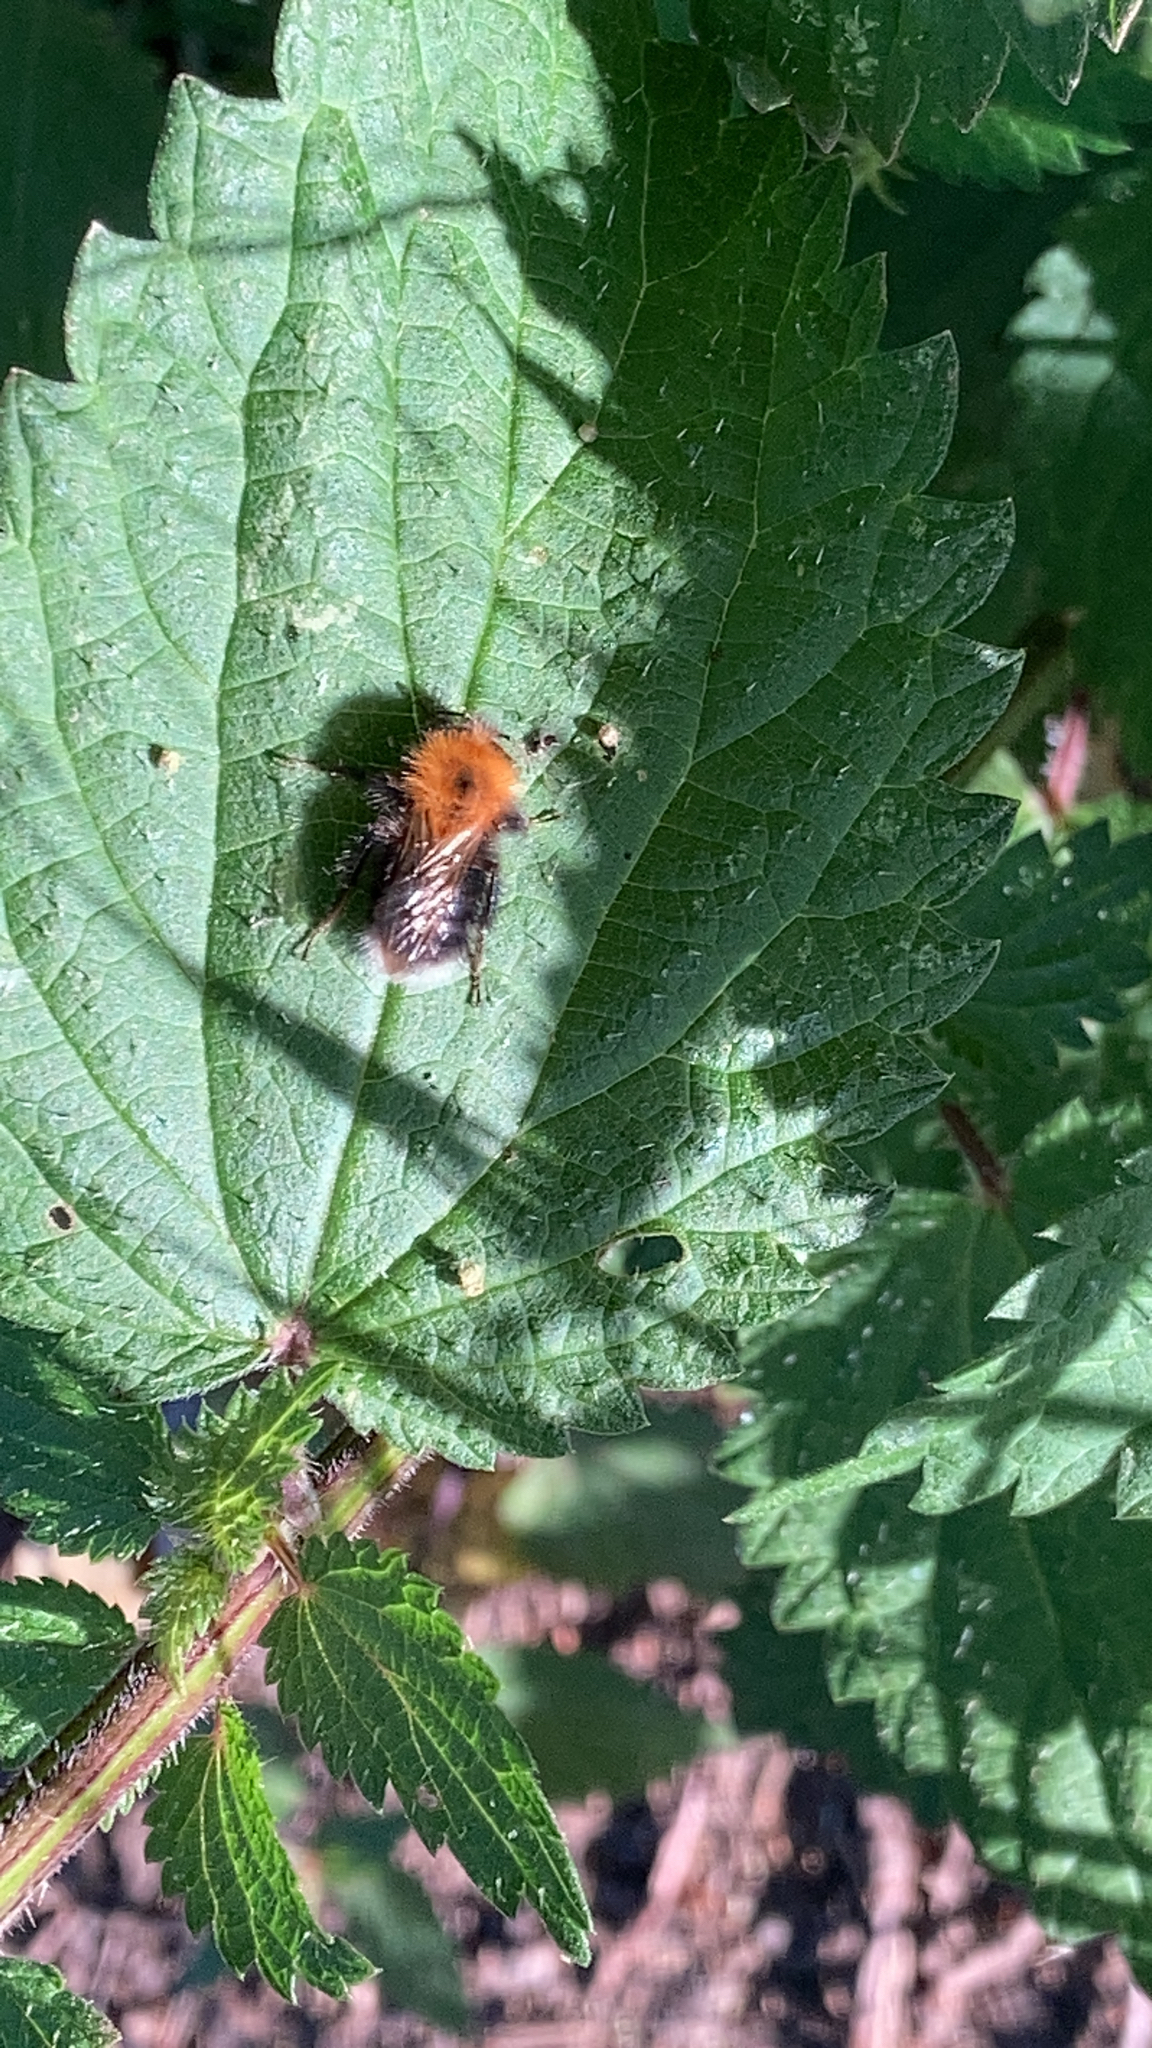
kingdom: Animalia
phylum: Arthropoda
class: Insecta
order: Hymenoptera
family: Apidae
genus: Bombus
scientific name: Bombus hypnorum
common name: New garden bumblebee
